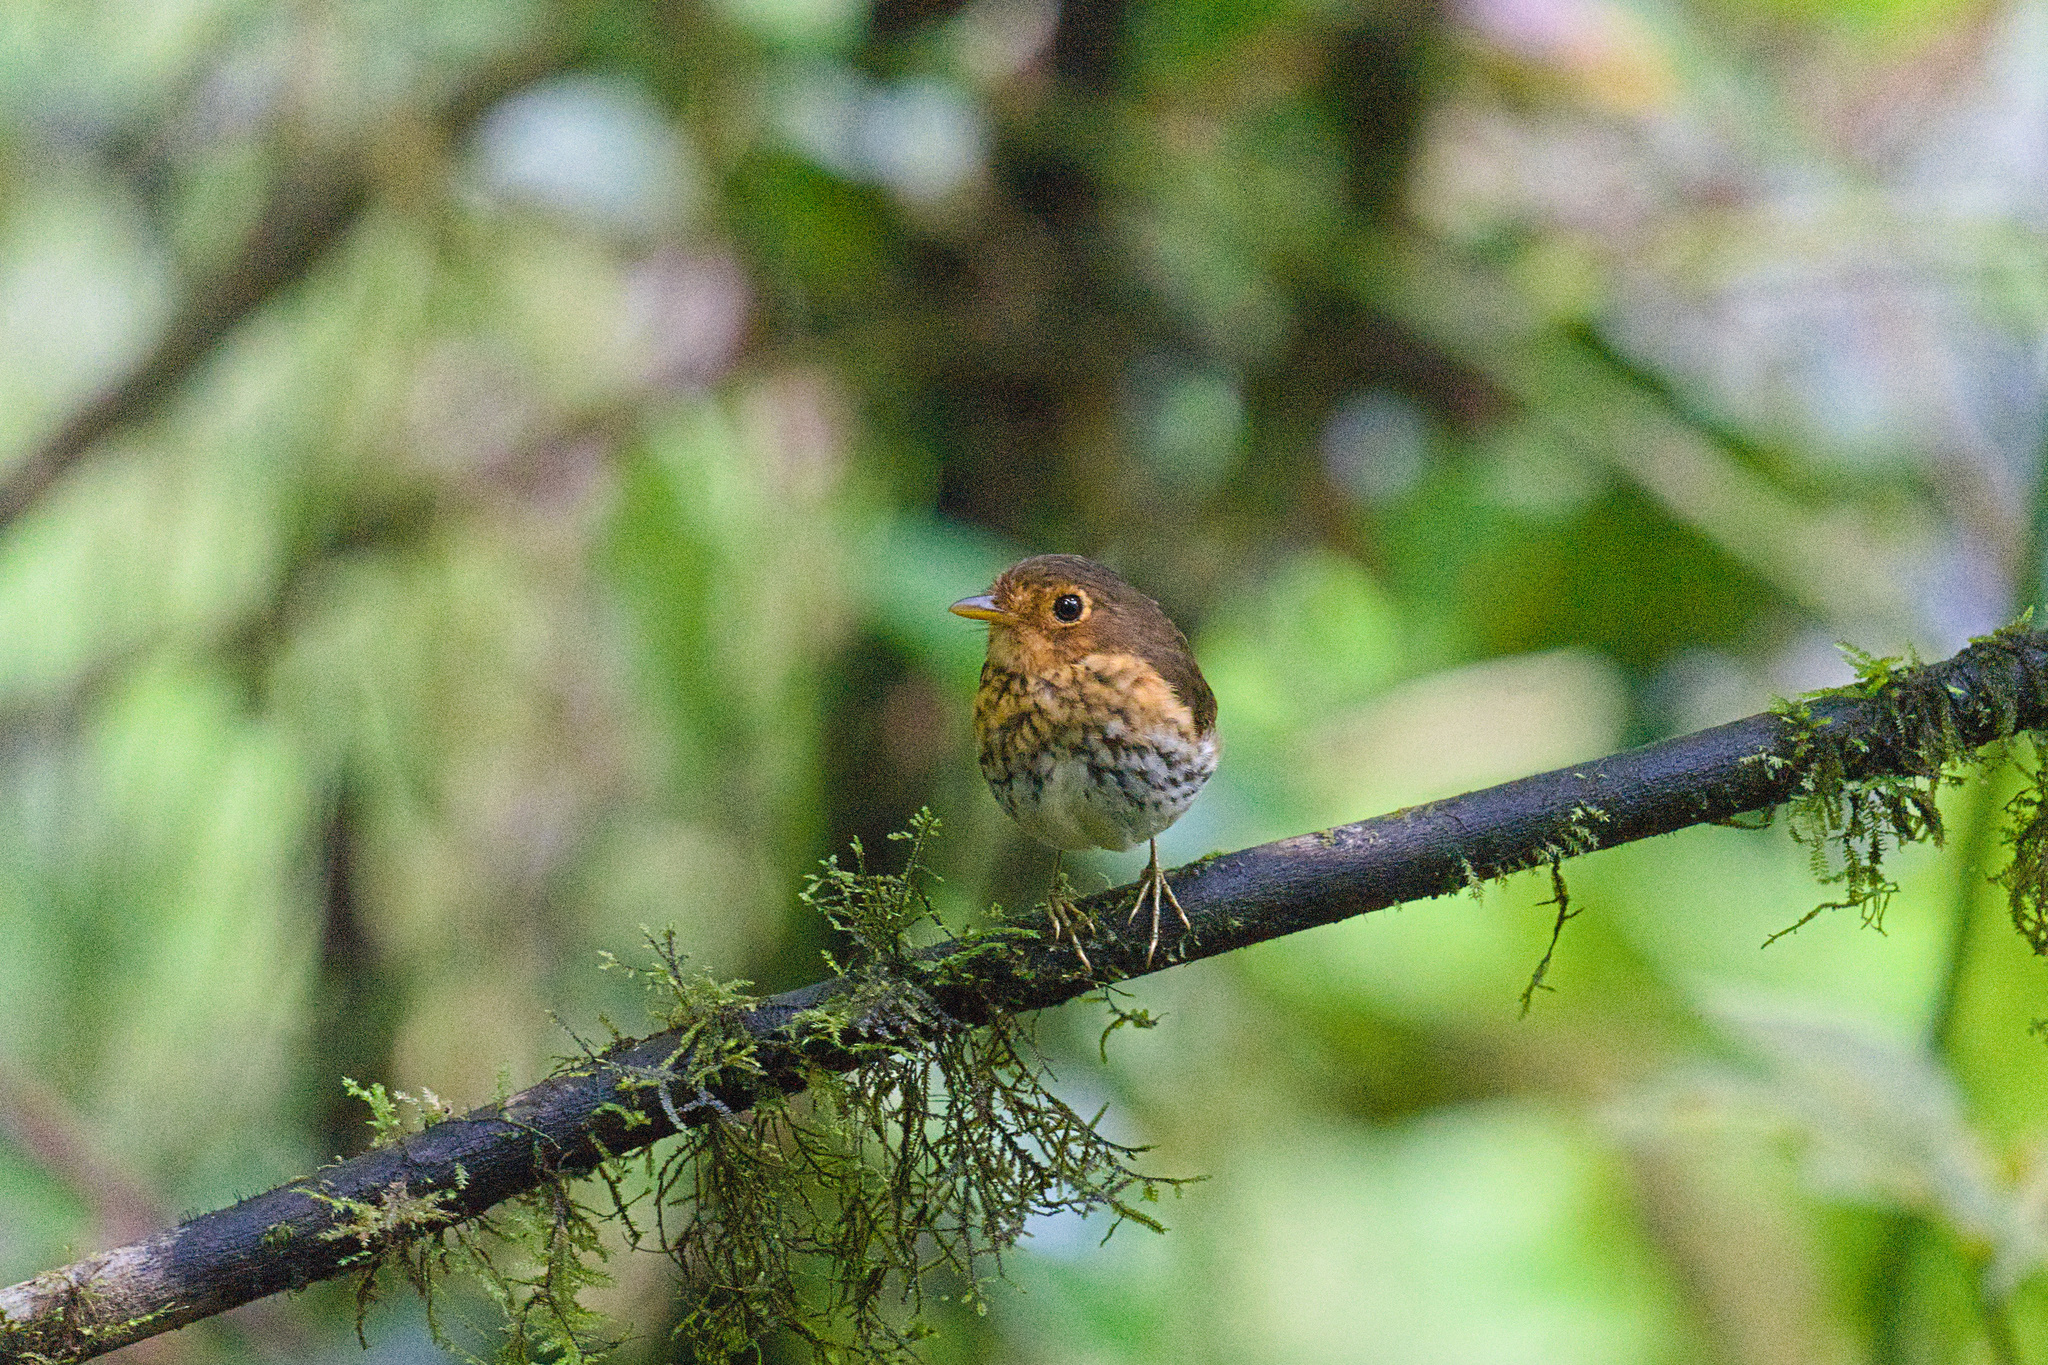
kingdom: Animalia
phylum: Chordata
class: Aves
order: Passeriformes
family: Grallariidae
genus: Grallaricula
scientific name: Grallaricula flavirostris
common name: Ochre-breasted antpitta
